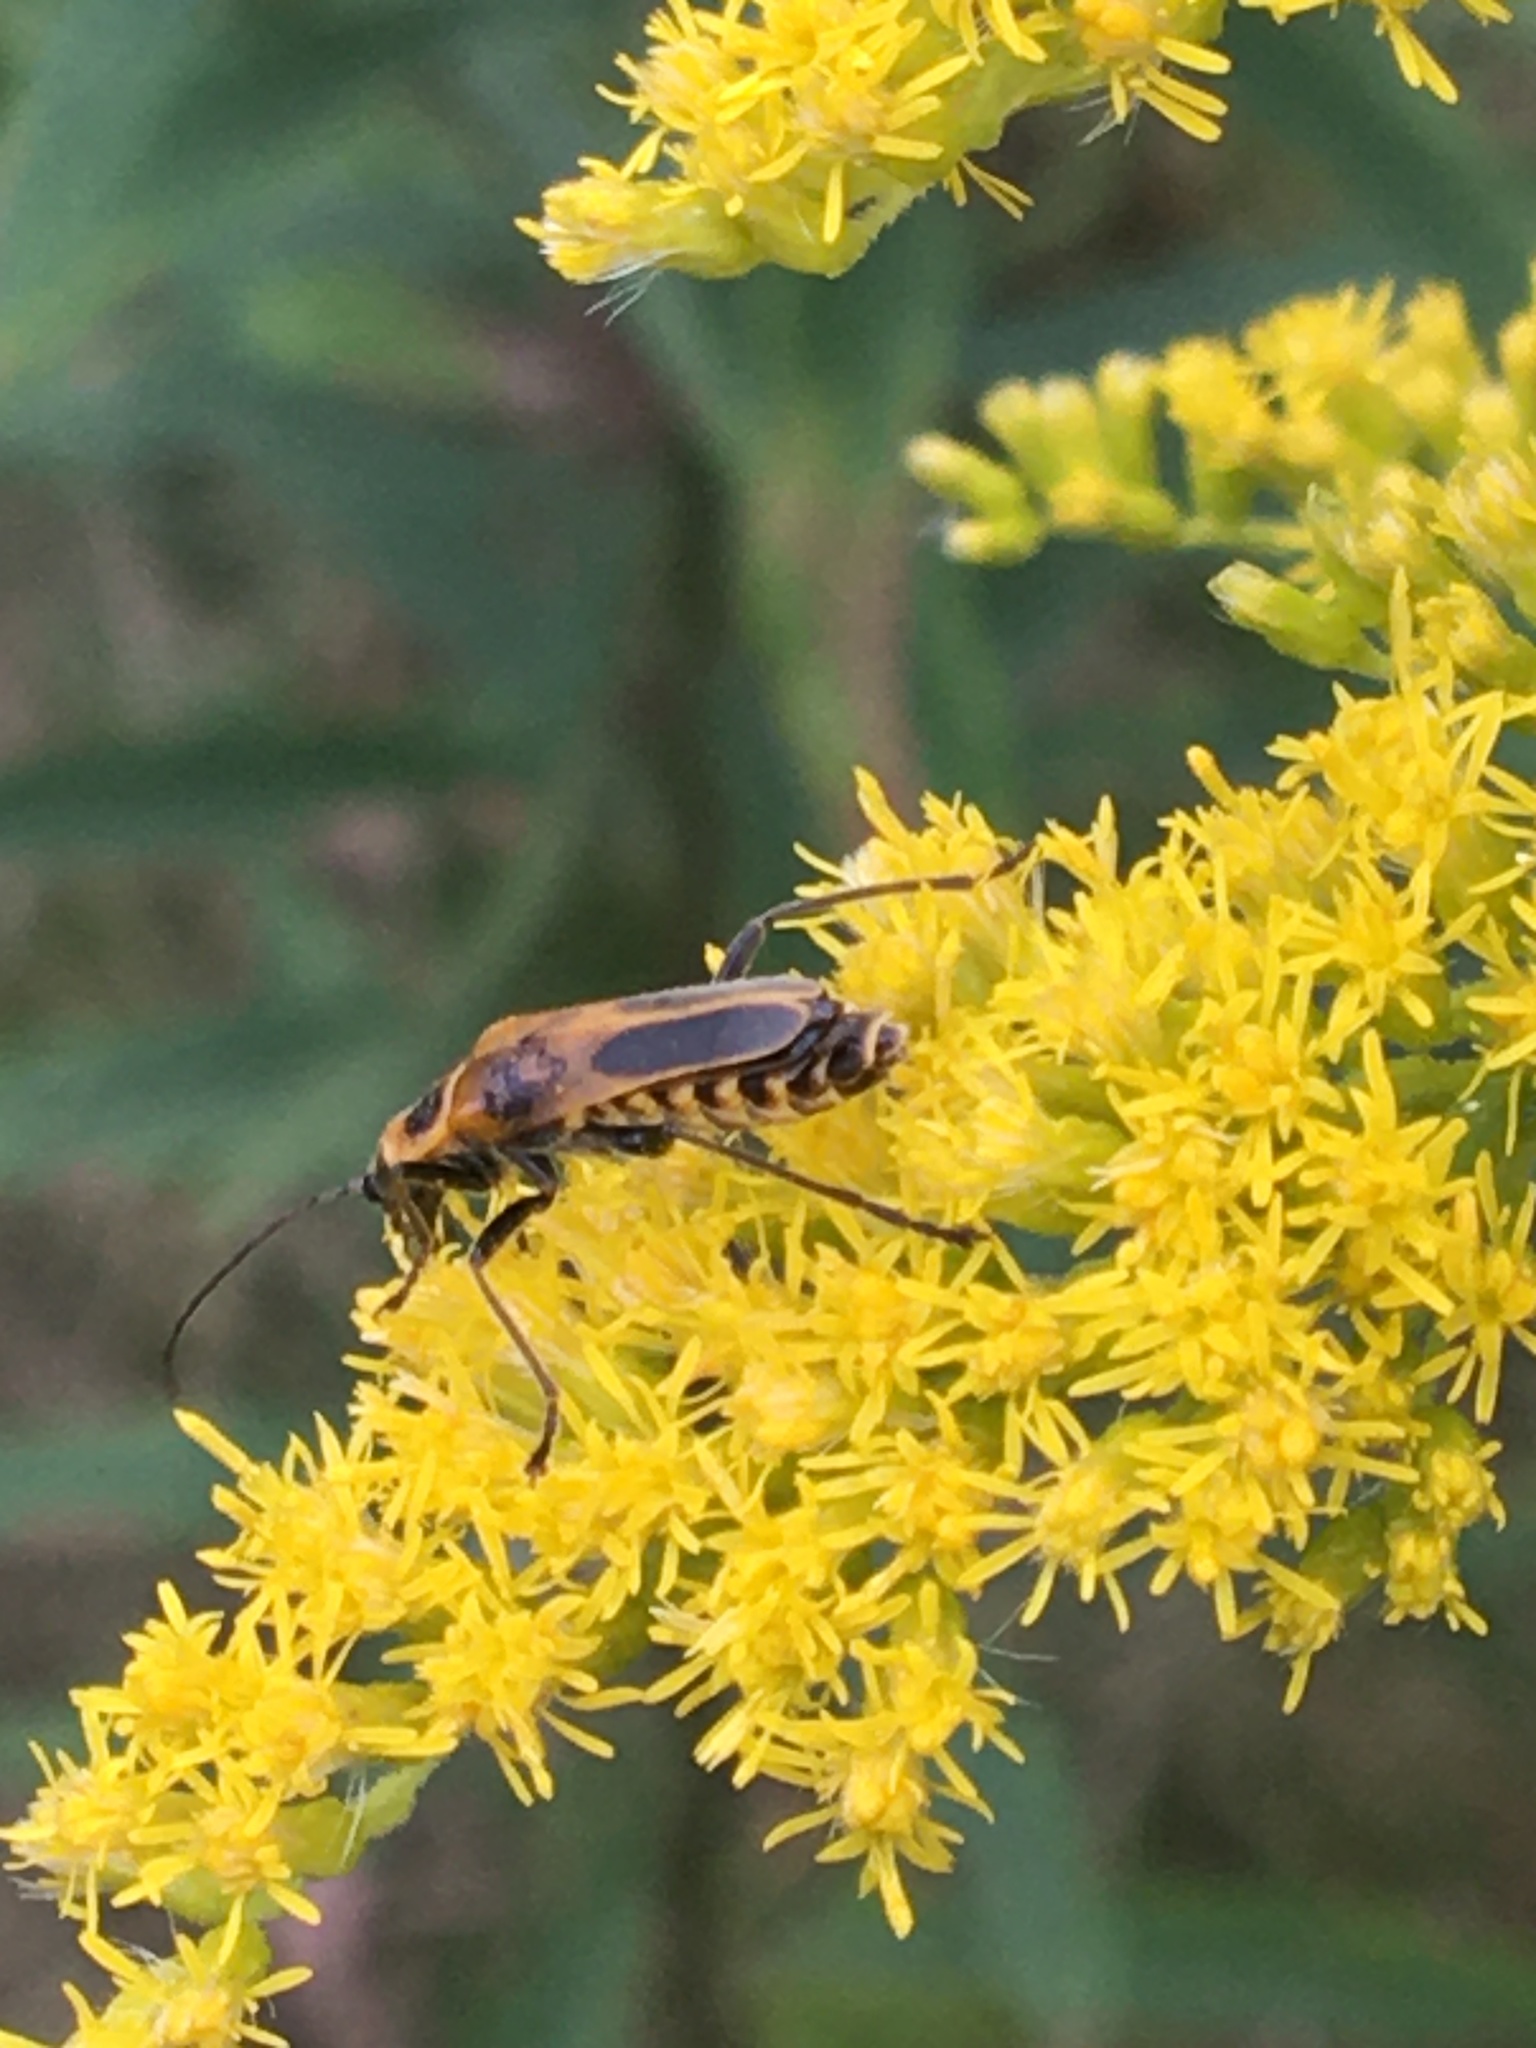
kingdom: Animalia
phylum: Arthropoda
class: Insecta
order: Coleoptera
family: Cantharidae
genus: Chauliognathus
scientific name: Chauliognathus pensylvanicus
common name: Goldenrod soldier beetle
